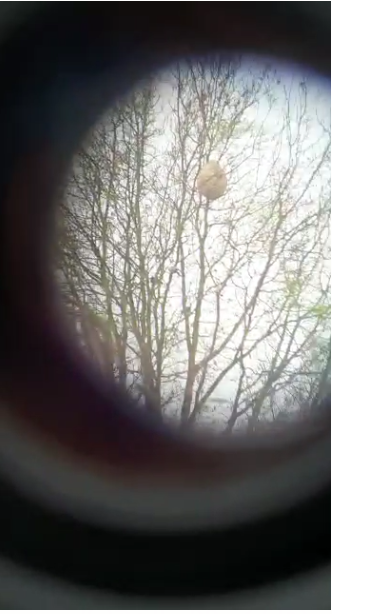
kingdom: Animalia
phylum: Arthropoda
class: Insecta
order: Hymenoptera
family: Vespidae
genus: Vespa
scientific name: Vespa velutina
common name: Asian hornet
